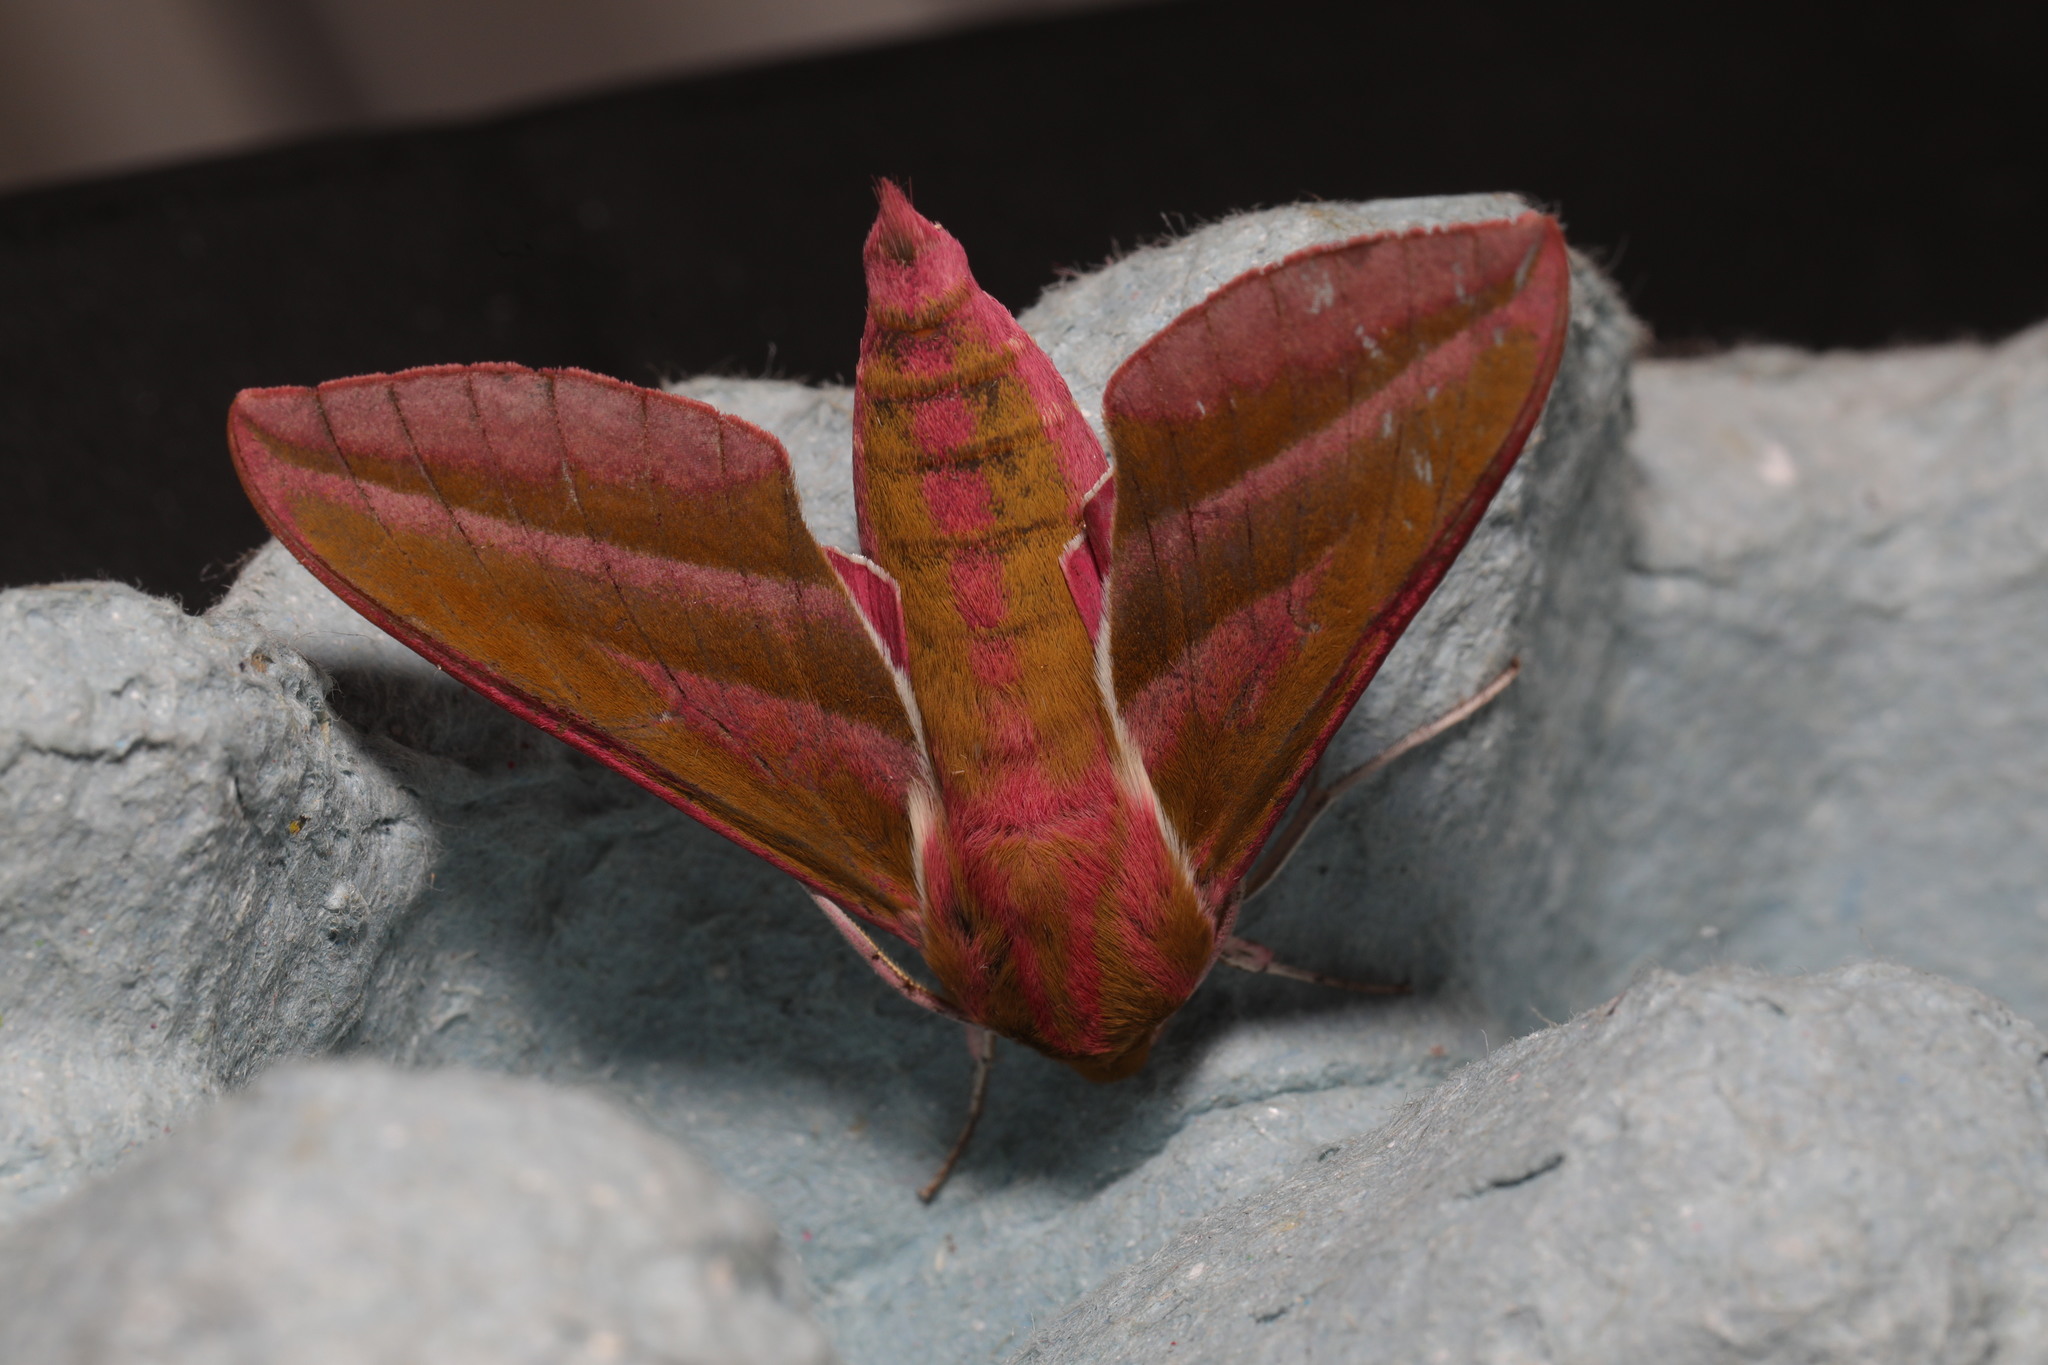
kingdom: Animalia
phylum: Arthropoda
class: Insecta
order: Lepidoptera
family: Sphingidae
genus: Deilephila
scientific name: Deilephila elpenor
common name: Elephant hawk-moth
